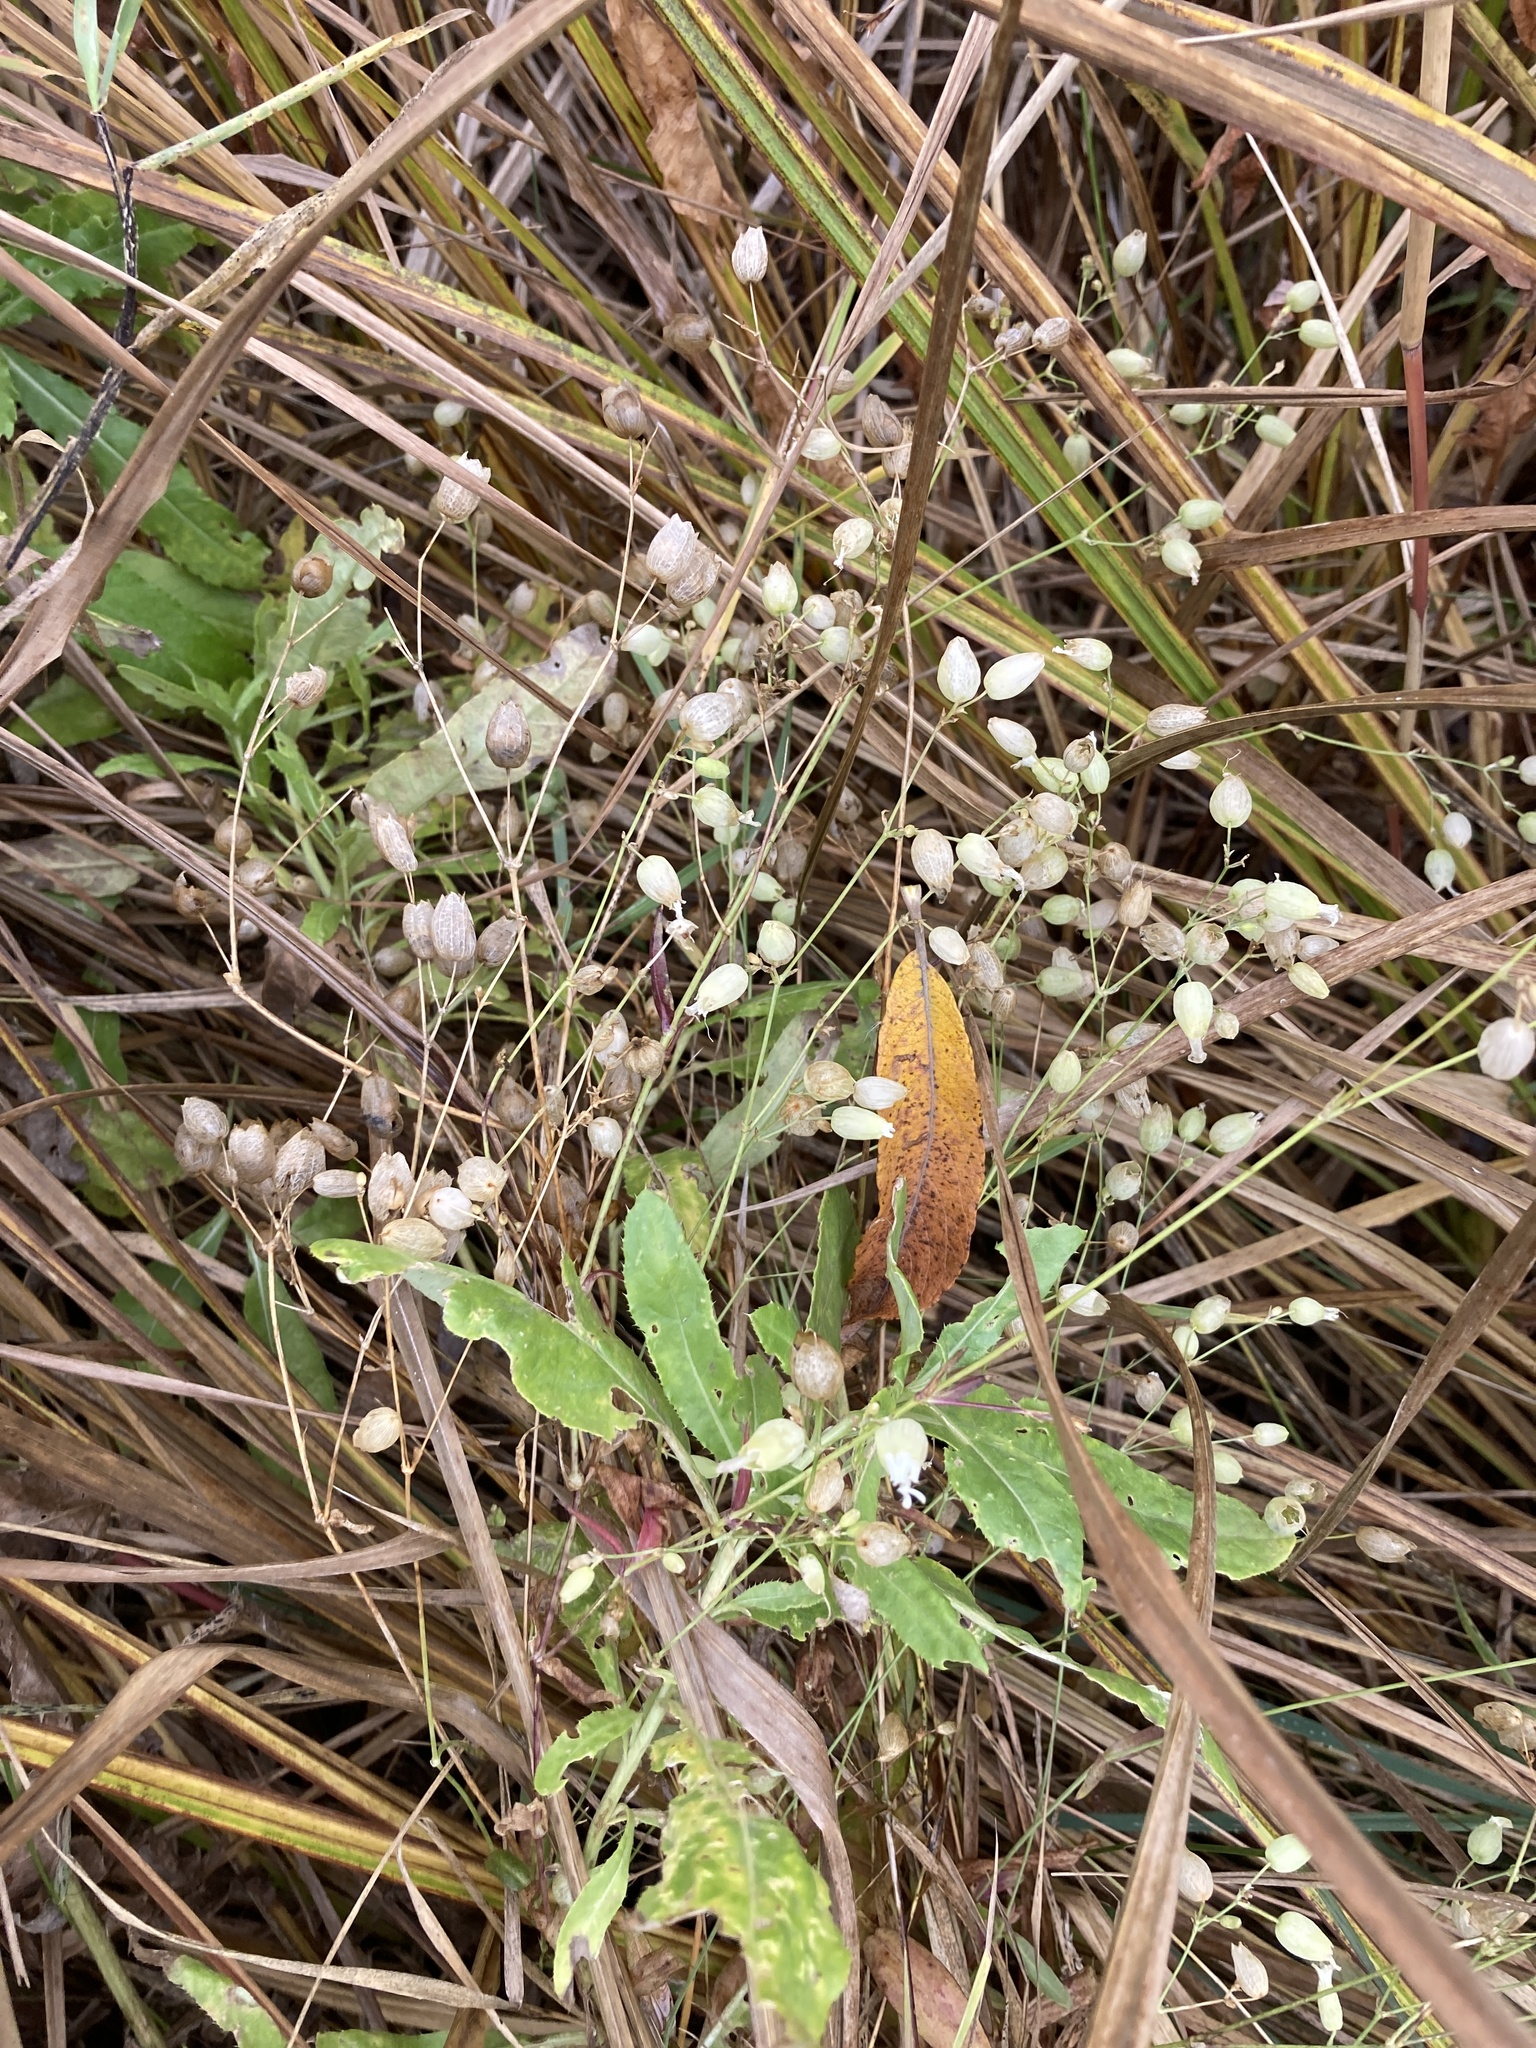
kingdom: Plantae
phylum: Tracheophyta
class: Magnoliopsida
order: Caryophyllales
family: Caryophyllaceae
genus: Silene
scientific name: Silene vulgaris
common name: Bladder campion
